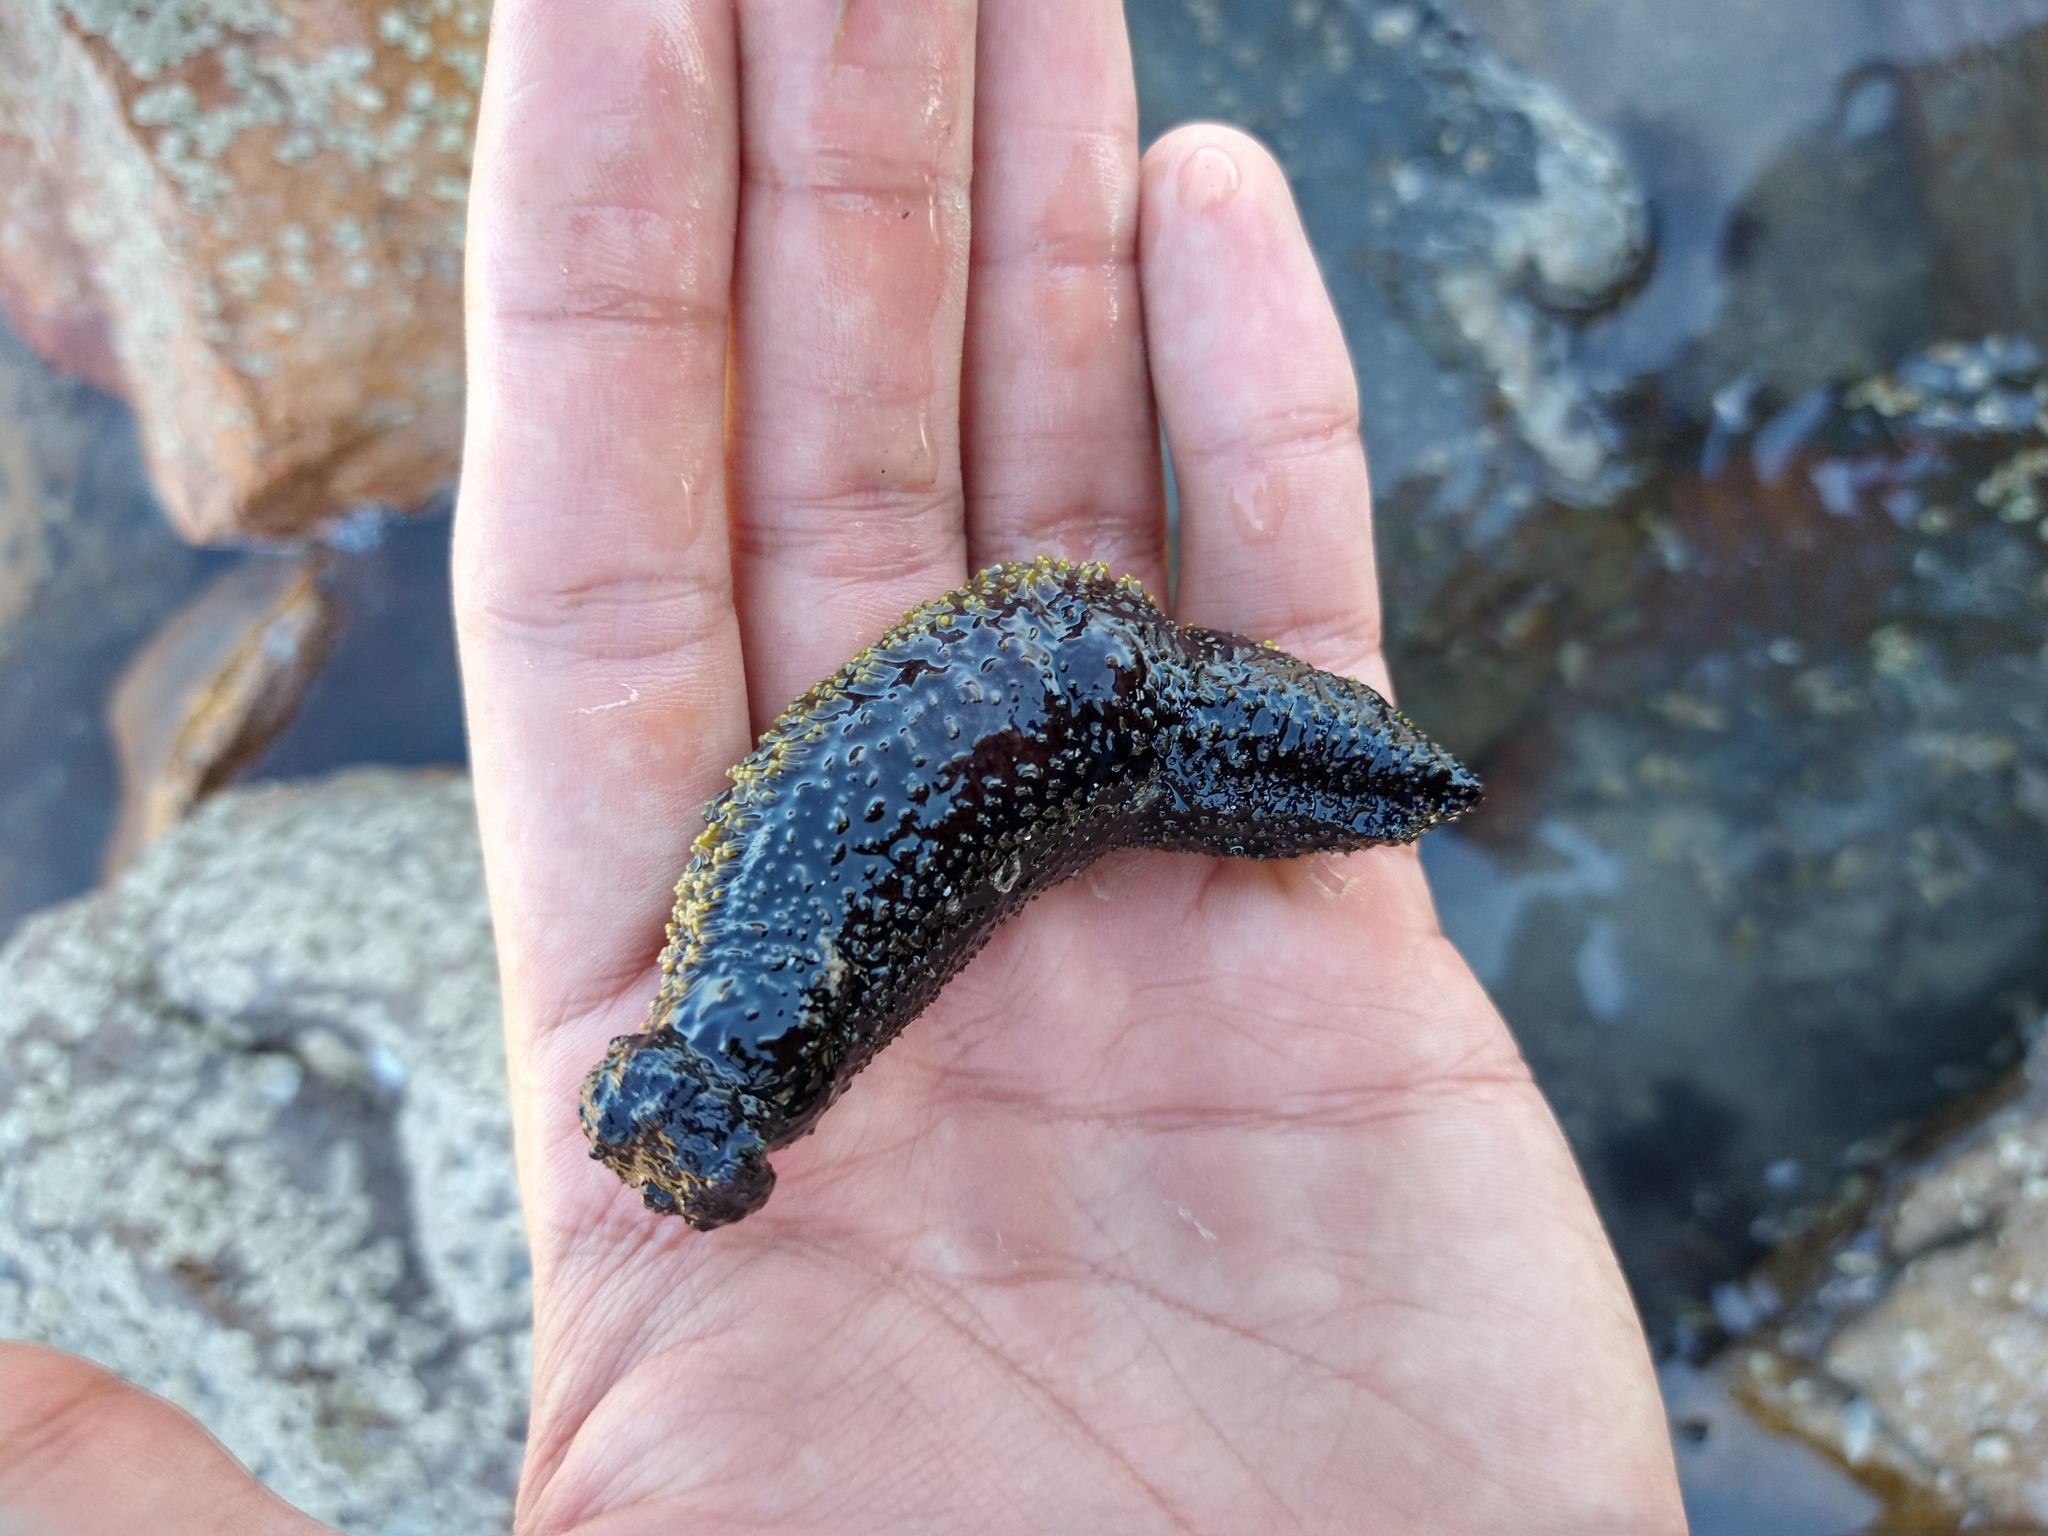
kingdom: Animalia
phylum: Echinodermata
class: Holothuroidea
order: Holothuriida
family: Holothuriidae
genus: Holothuria
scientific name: Holothuria lubrica
